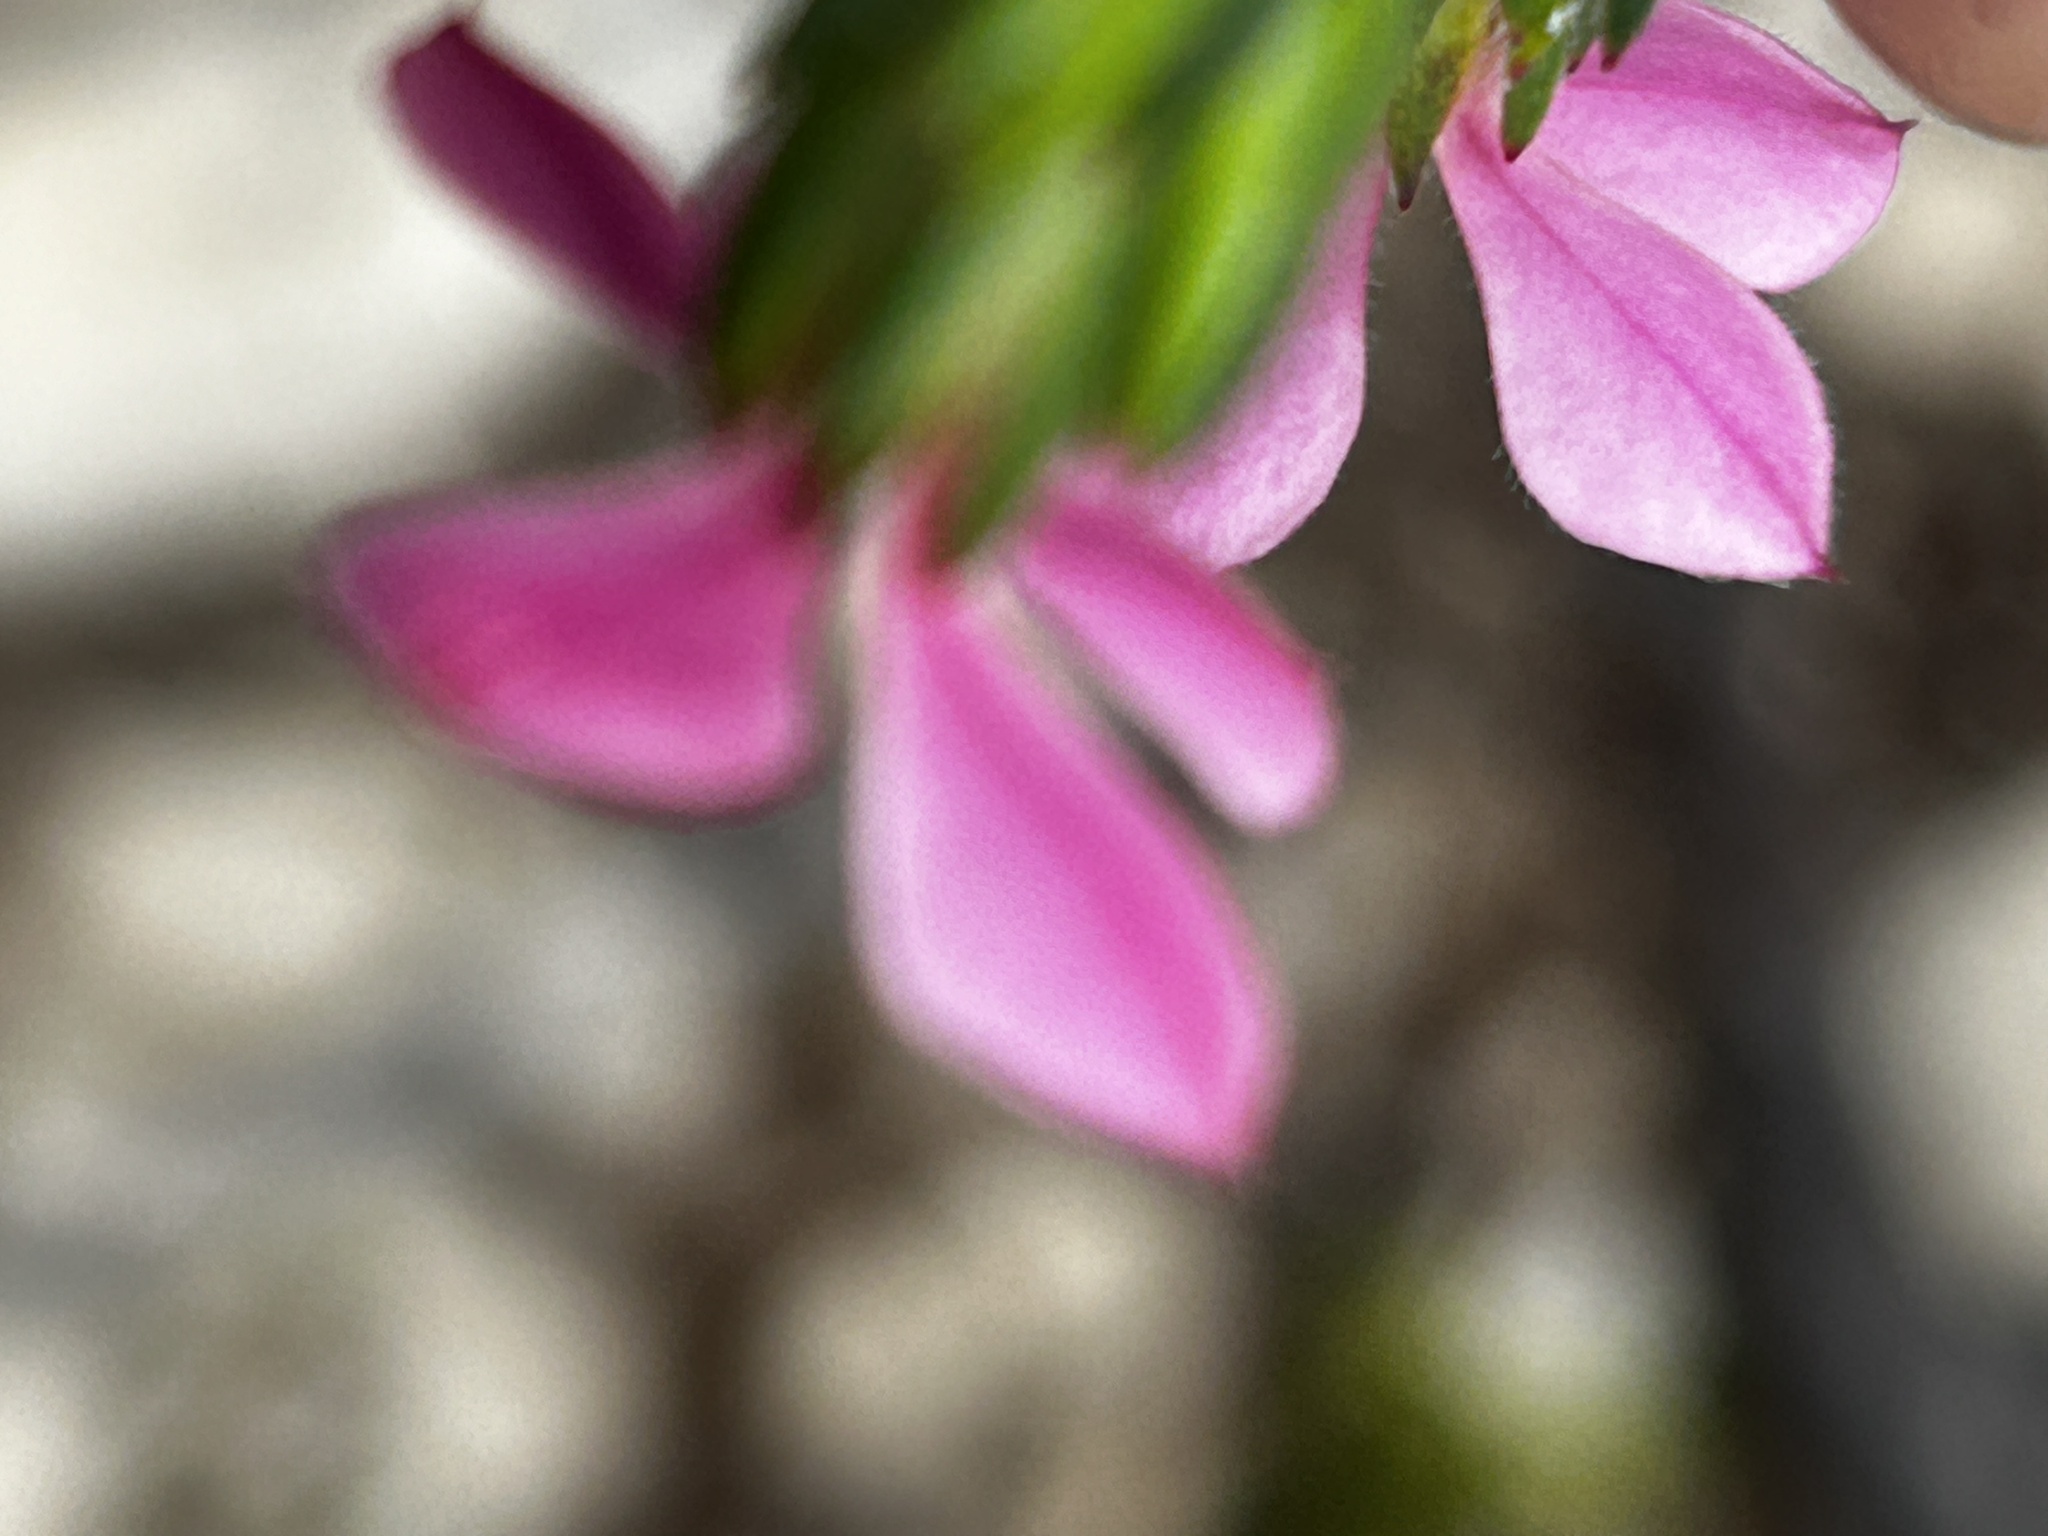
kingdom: Plantae
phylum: Tracheophyta
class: Magnoliopsida
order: Sapindales
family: Rutaceae
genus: Acmadenia
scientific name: Acmadenia obtusata
